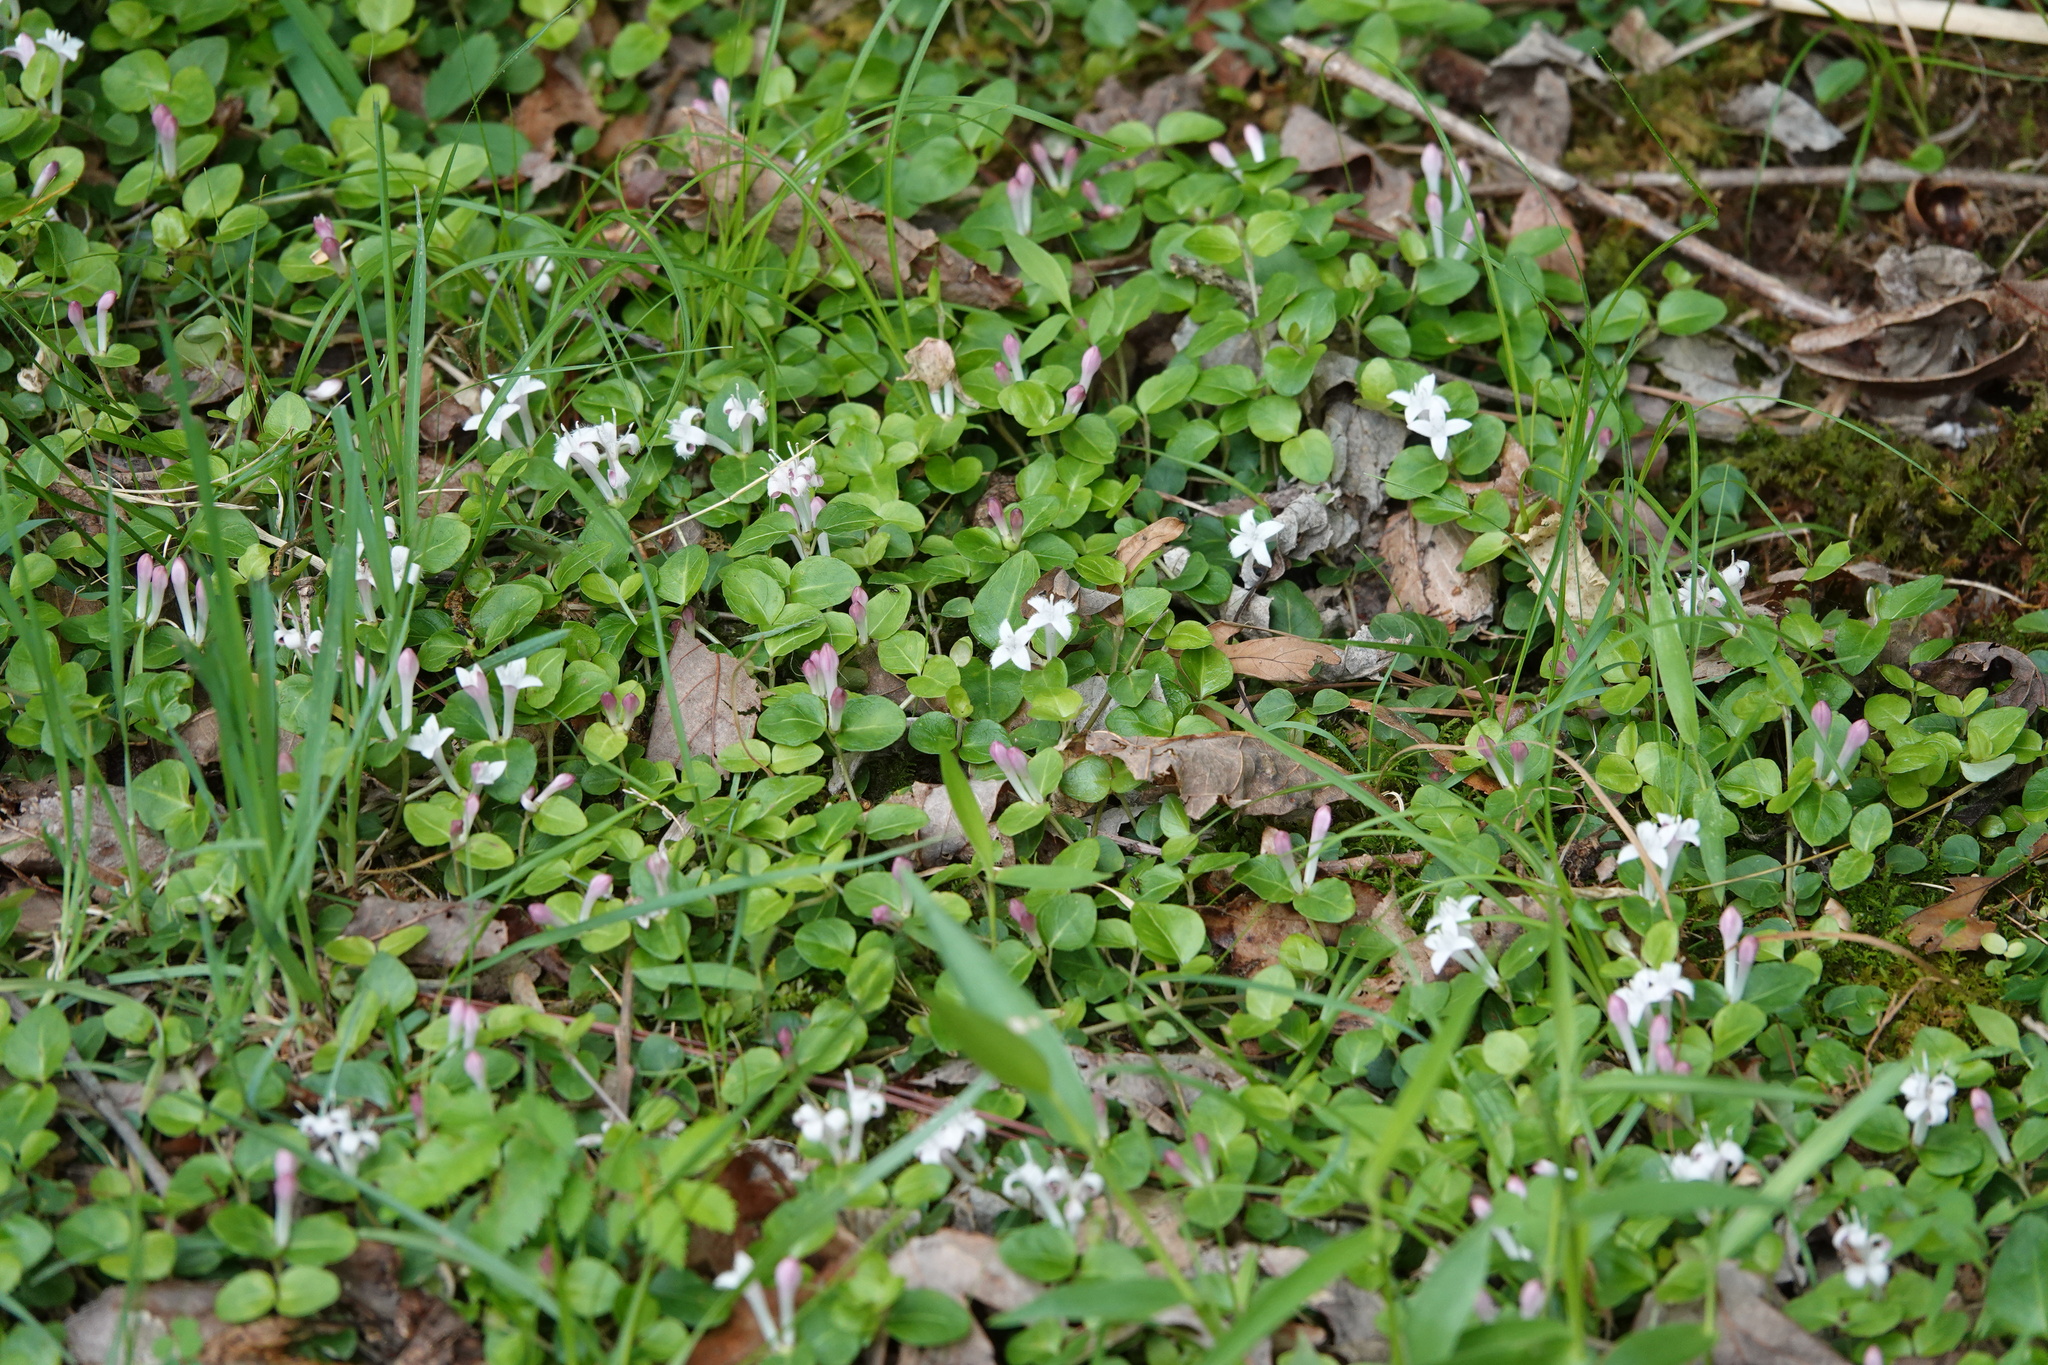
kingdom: Plantae
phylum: Tracheophyta
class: Magnoliopsida
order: Gentianales
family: Rubiaceae
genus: Mitchella
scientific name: Mitchella repens
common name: Partridge-berry
